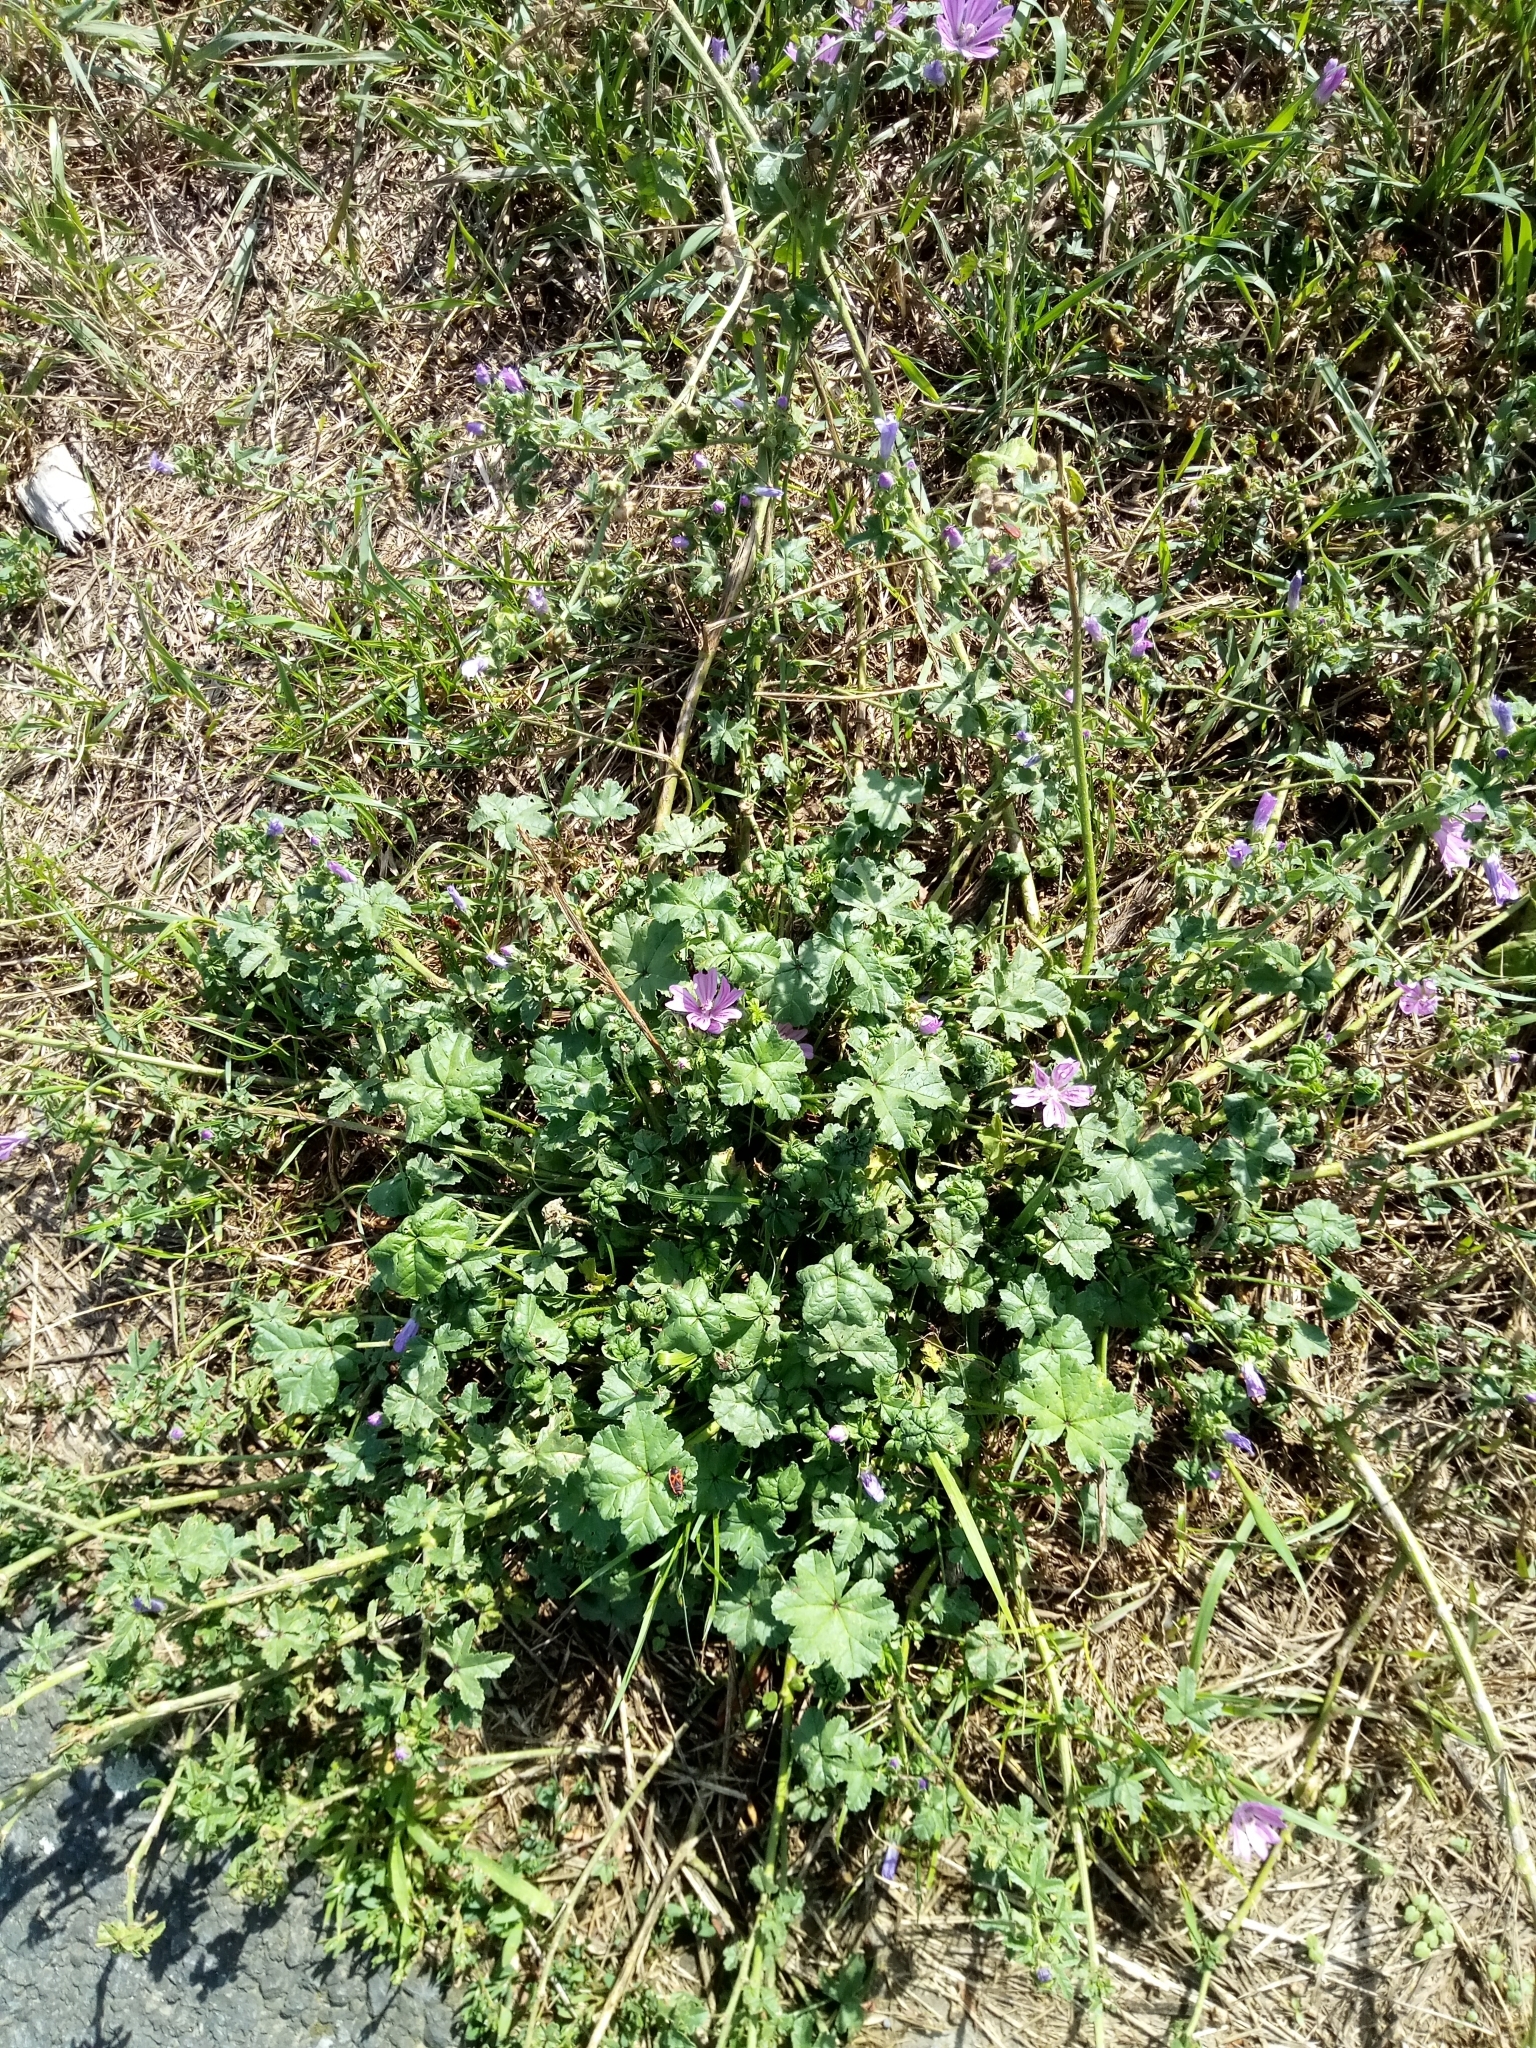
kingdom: Plantae
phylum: Tracheophyta
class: Magnoliopsida
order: Malvales
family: Malvaceae
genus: Malva
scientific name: Malva sylvestris
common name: Common mallow
